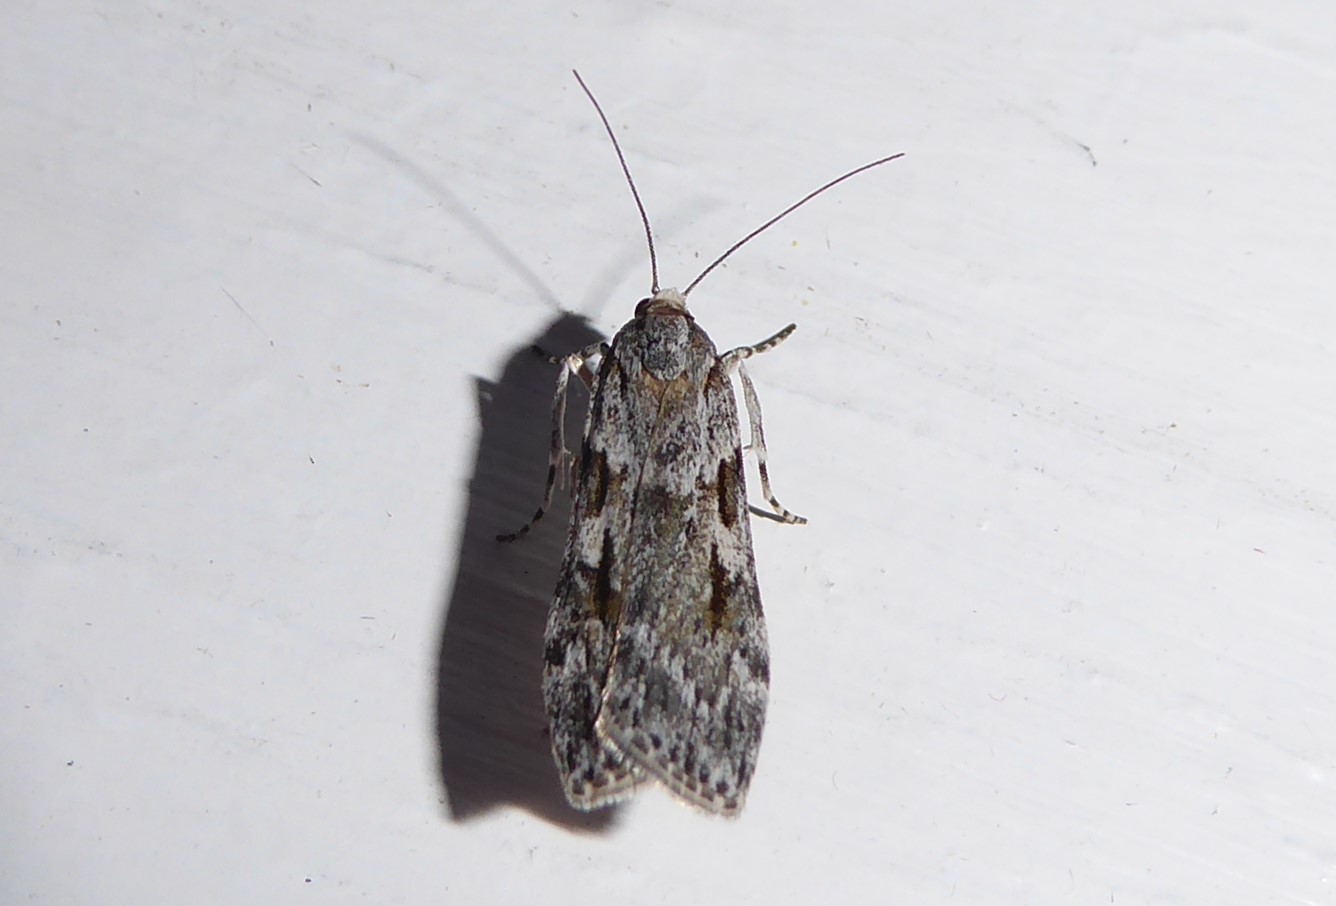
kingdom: Animalia
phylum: Arthropoda
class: Insecta
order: Lepidoptera
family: Crambidae
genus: Scoparia
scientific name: Scoparia halopis
